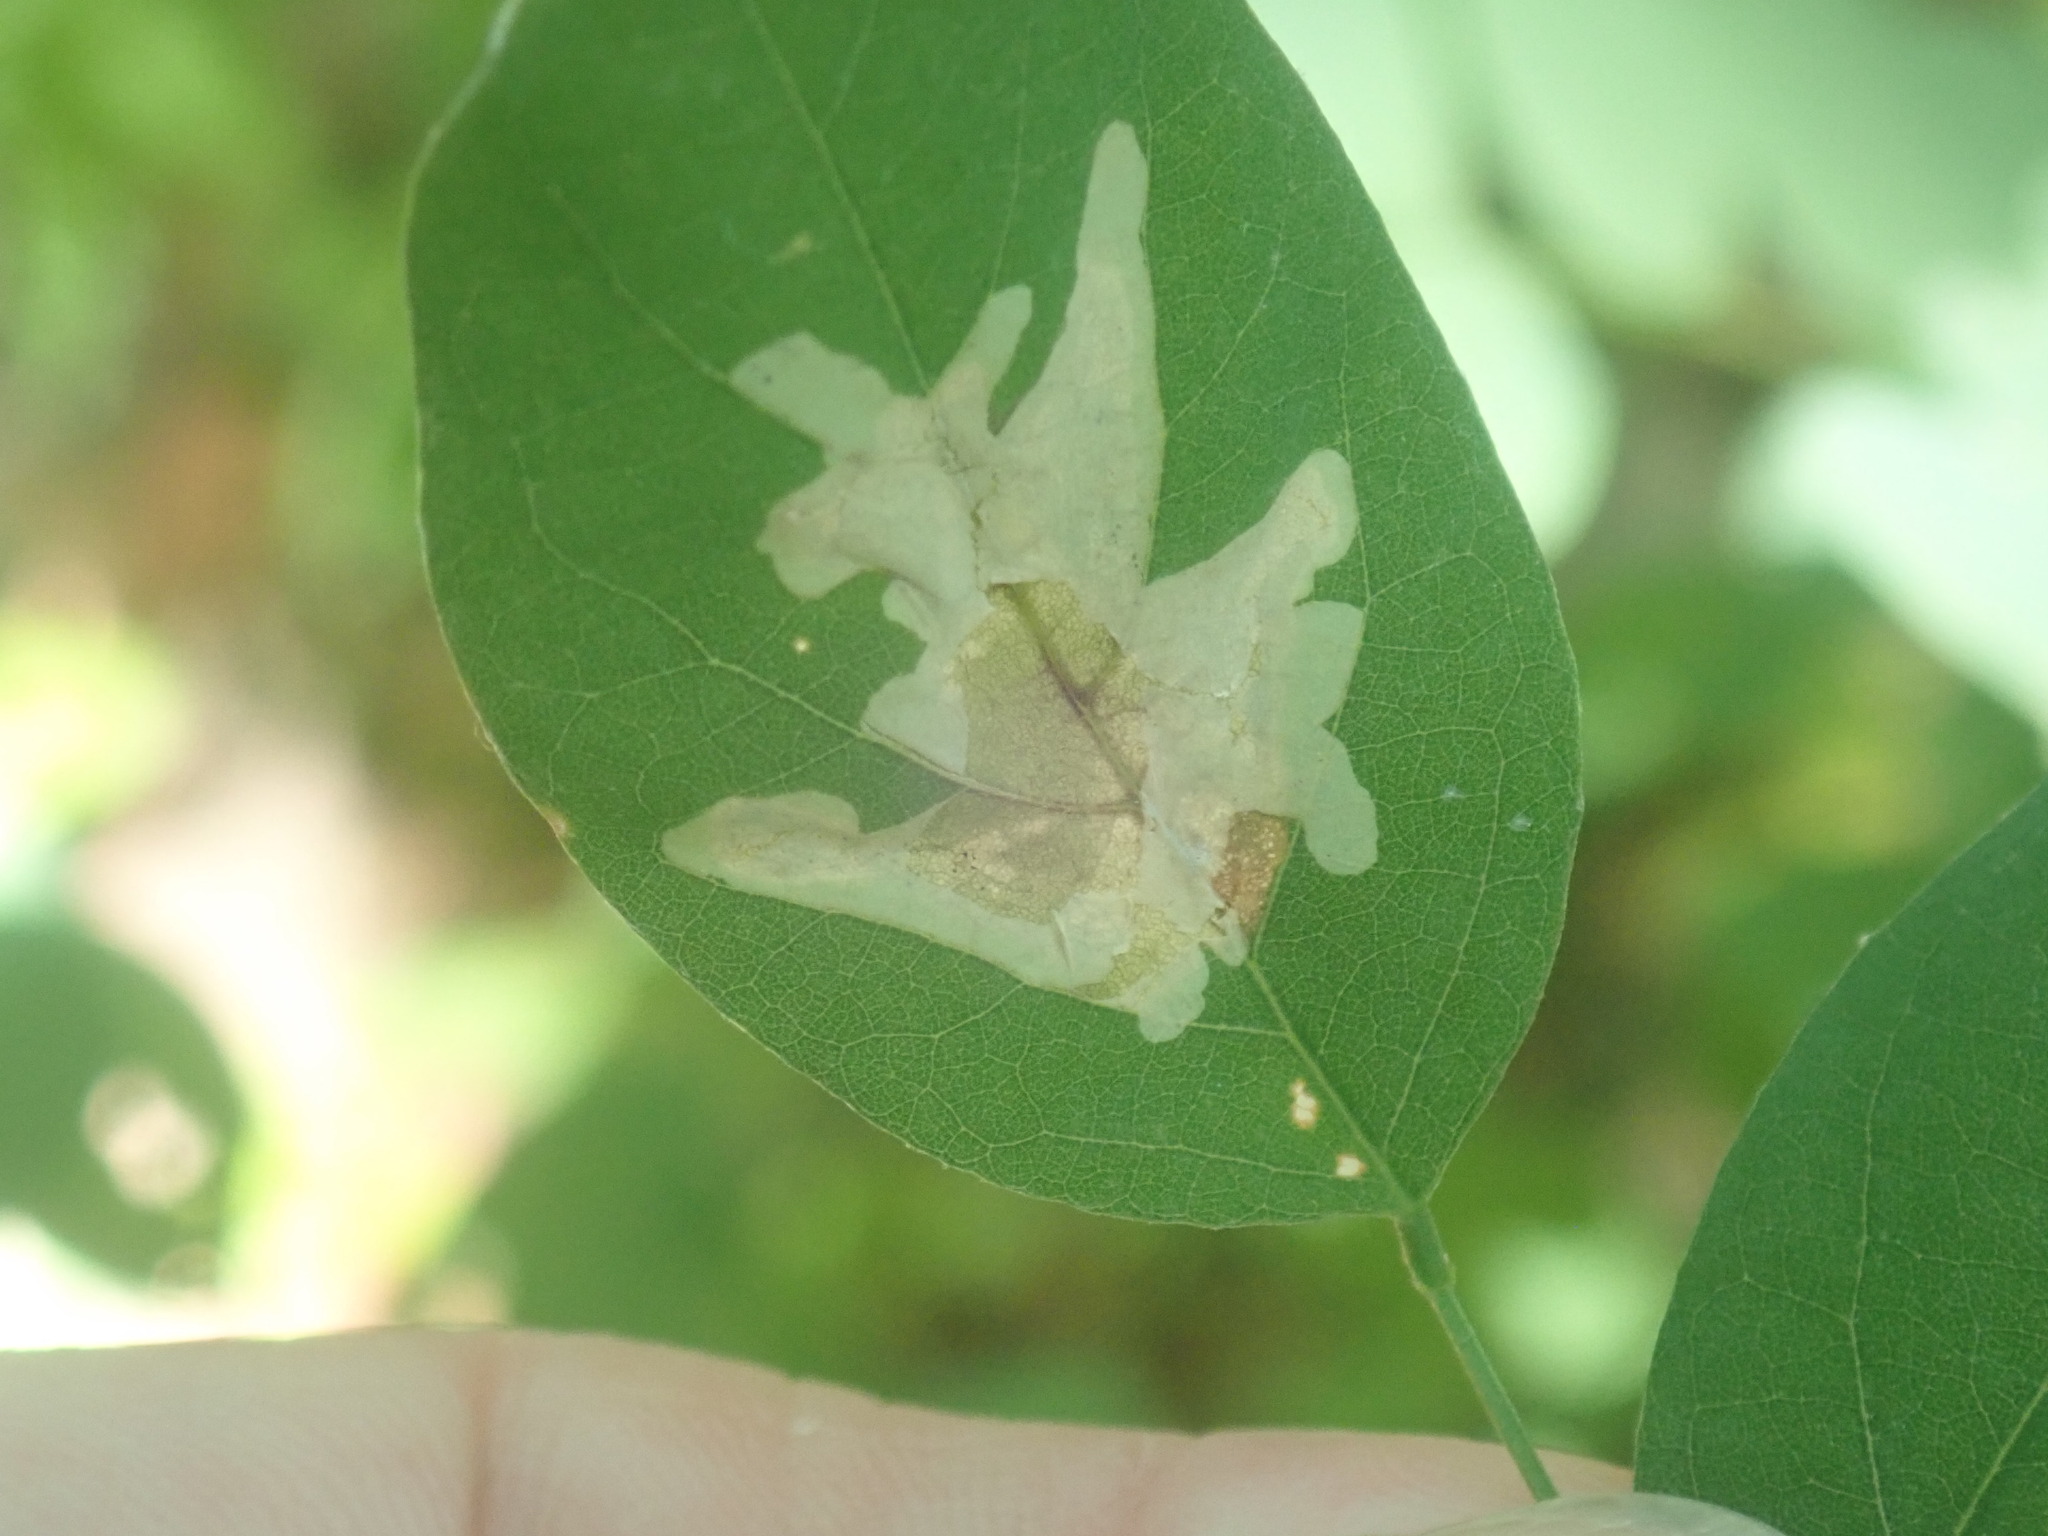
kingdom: Animalia
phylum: Arthropoda
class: Insecta
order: Lepidoptera
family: Gracillariidae
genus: Parectopa
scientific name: Parectopa robiniella
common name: Locust digitate leafminer
